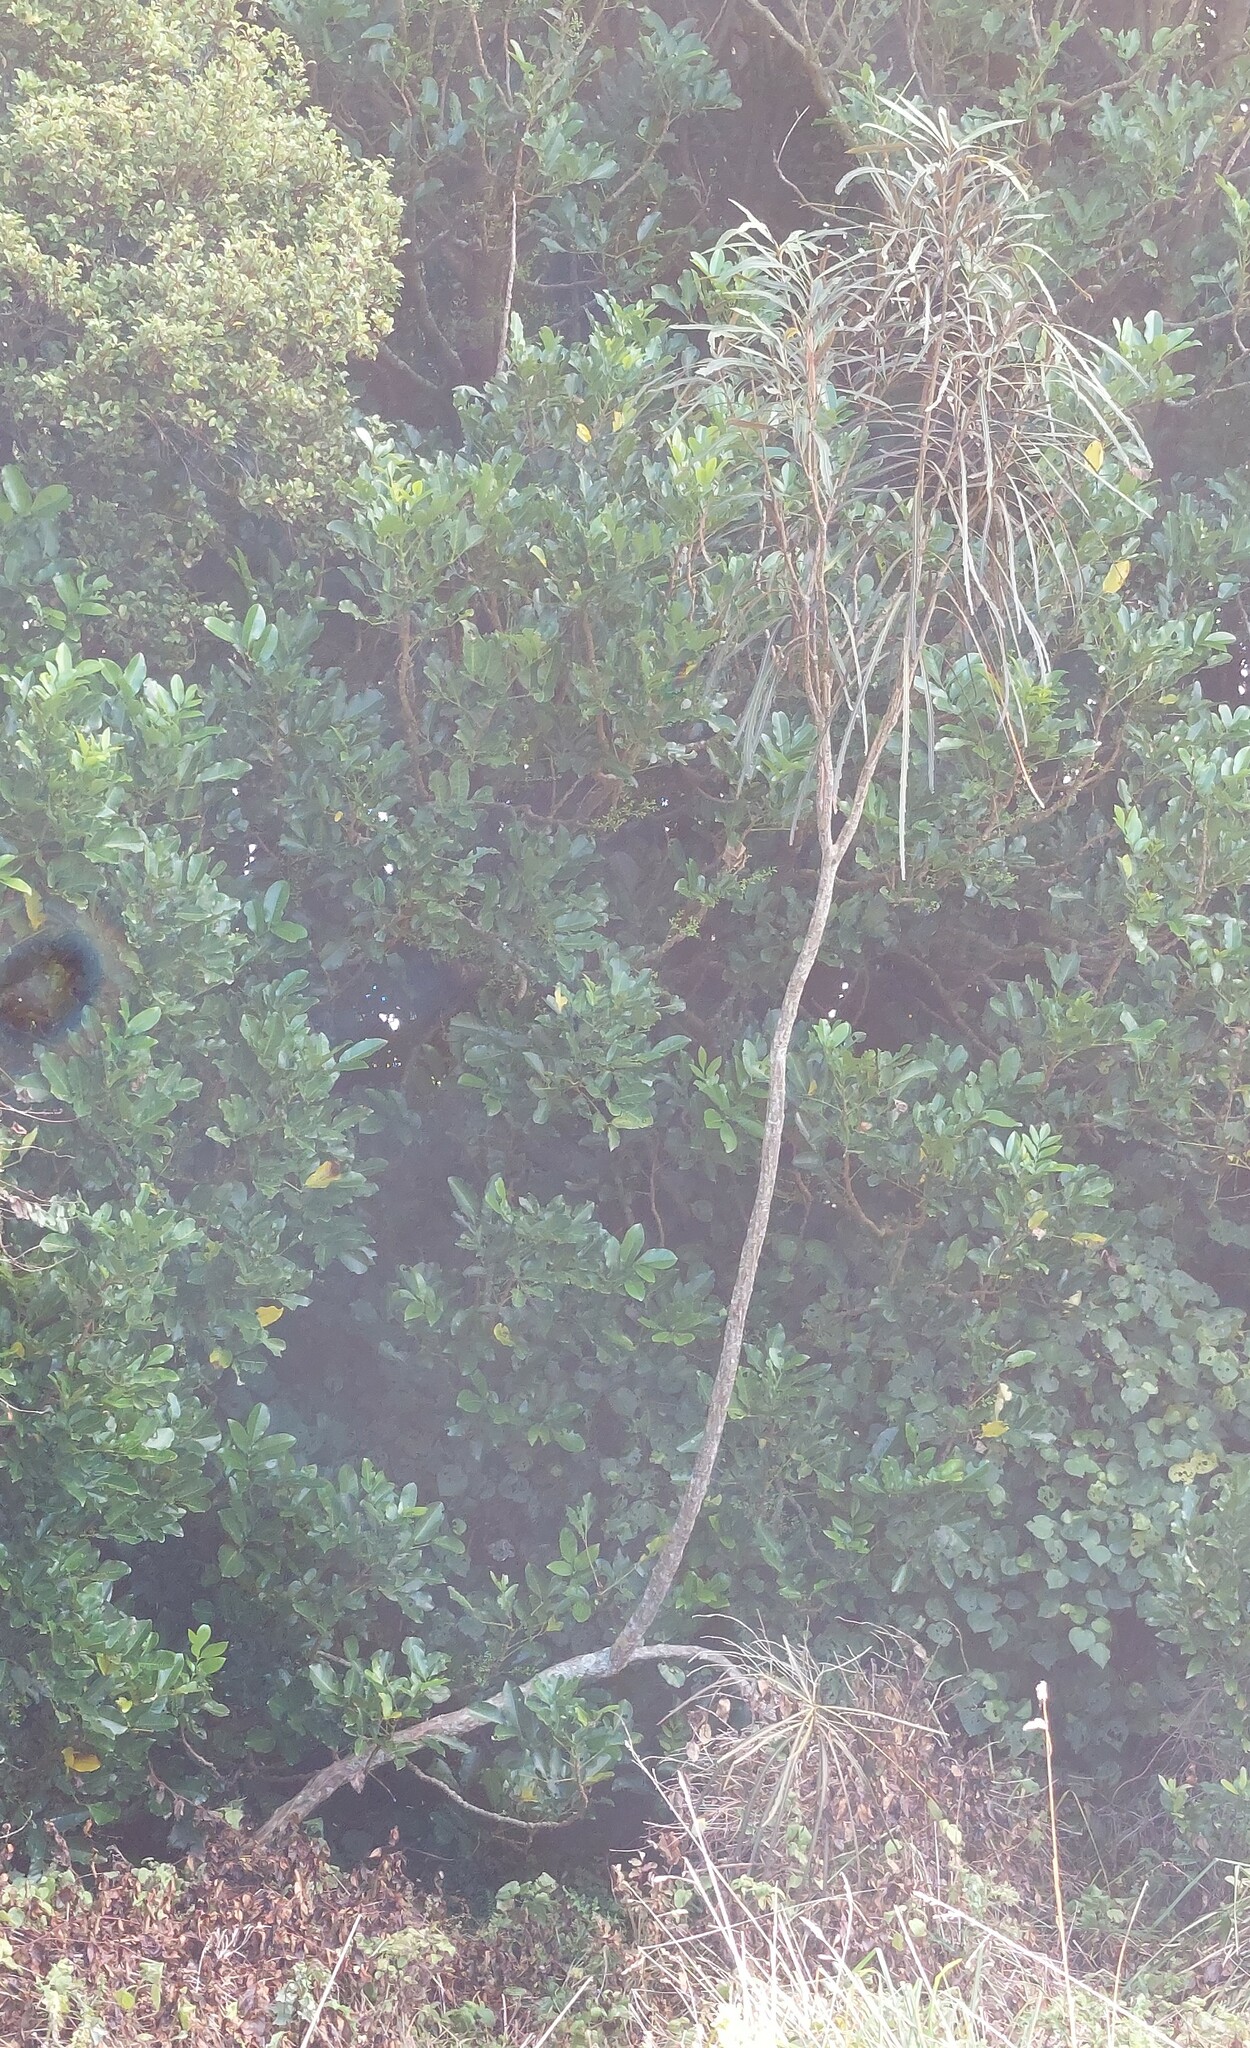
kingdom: Plantae
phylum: Tracheophyta
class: Magnoliopsida
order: Apiales
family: Araliaceae
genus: Pseudopanax
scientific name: Pseudopanax crassifolius
